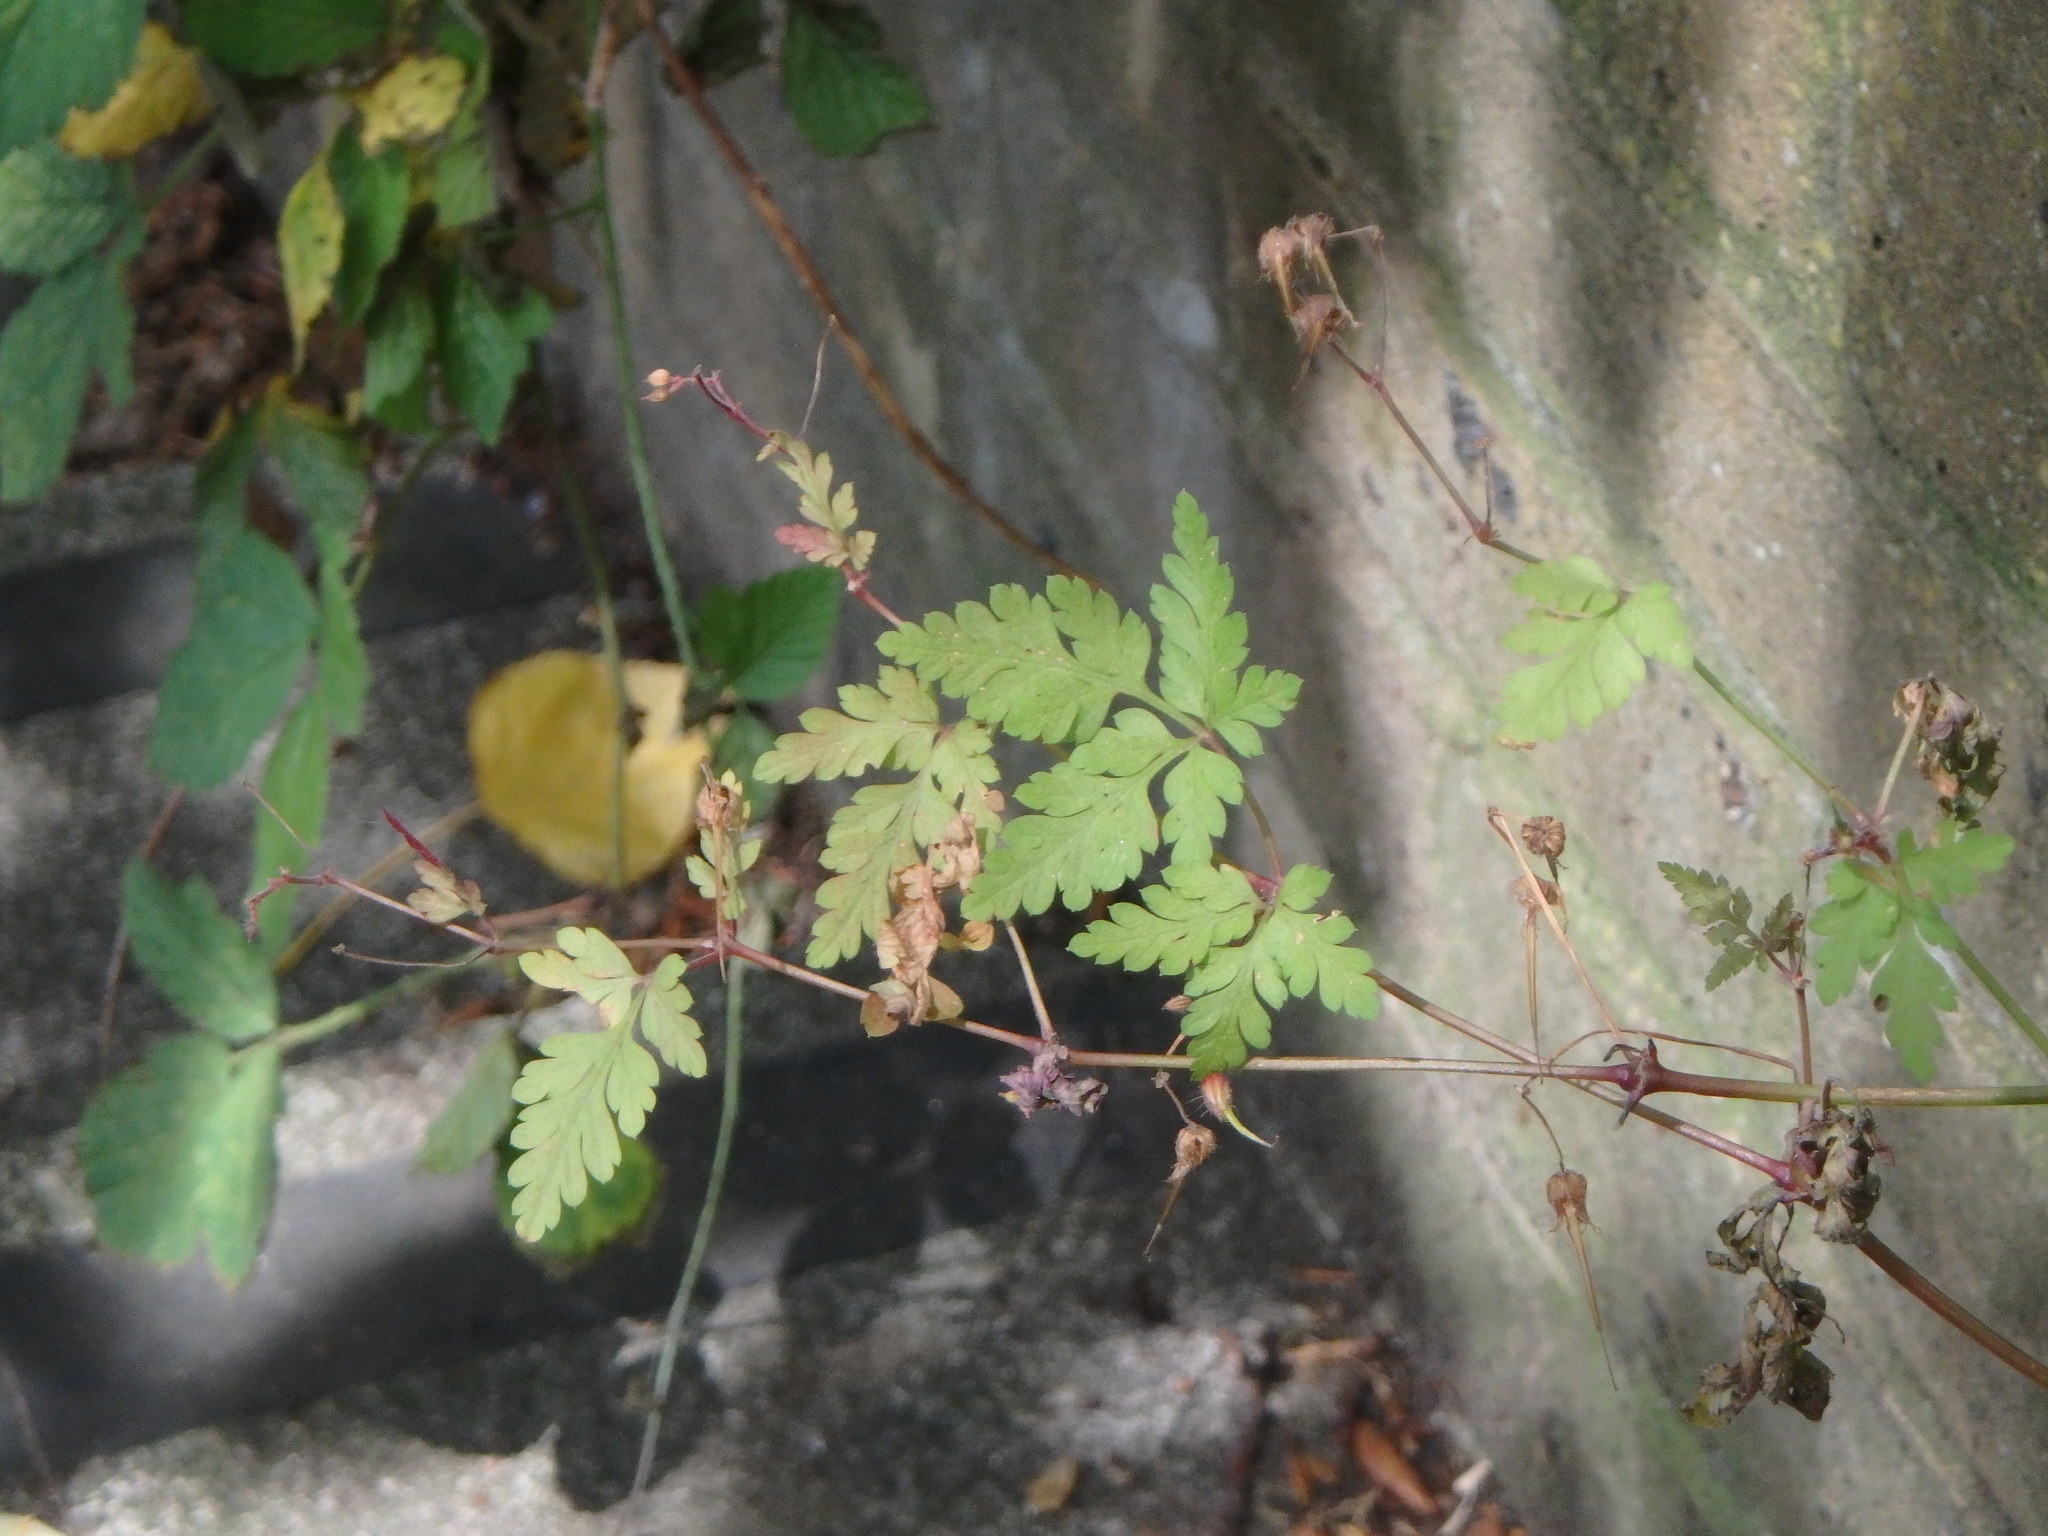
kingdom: Plantae
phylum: Tracheophyta
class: Magnoliopsida
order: Geraniales
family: Geraniaceae
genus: Geranium
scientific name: Geranium robertianum
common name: Herb-robert
